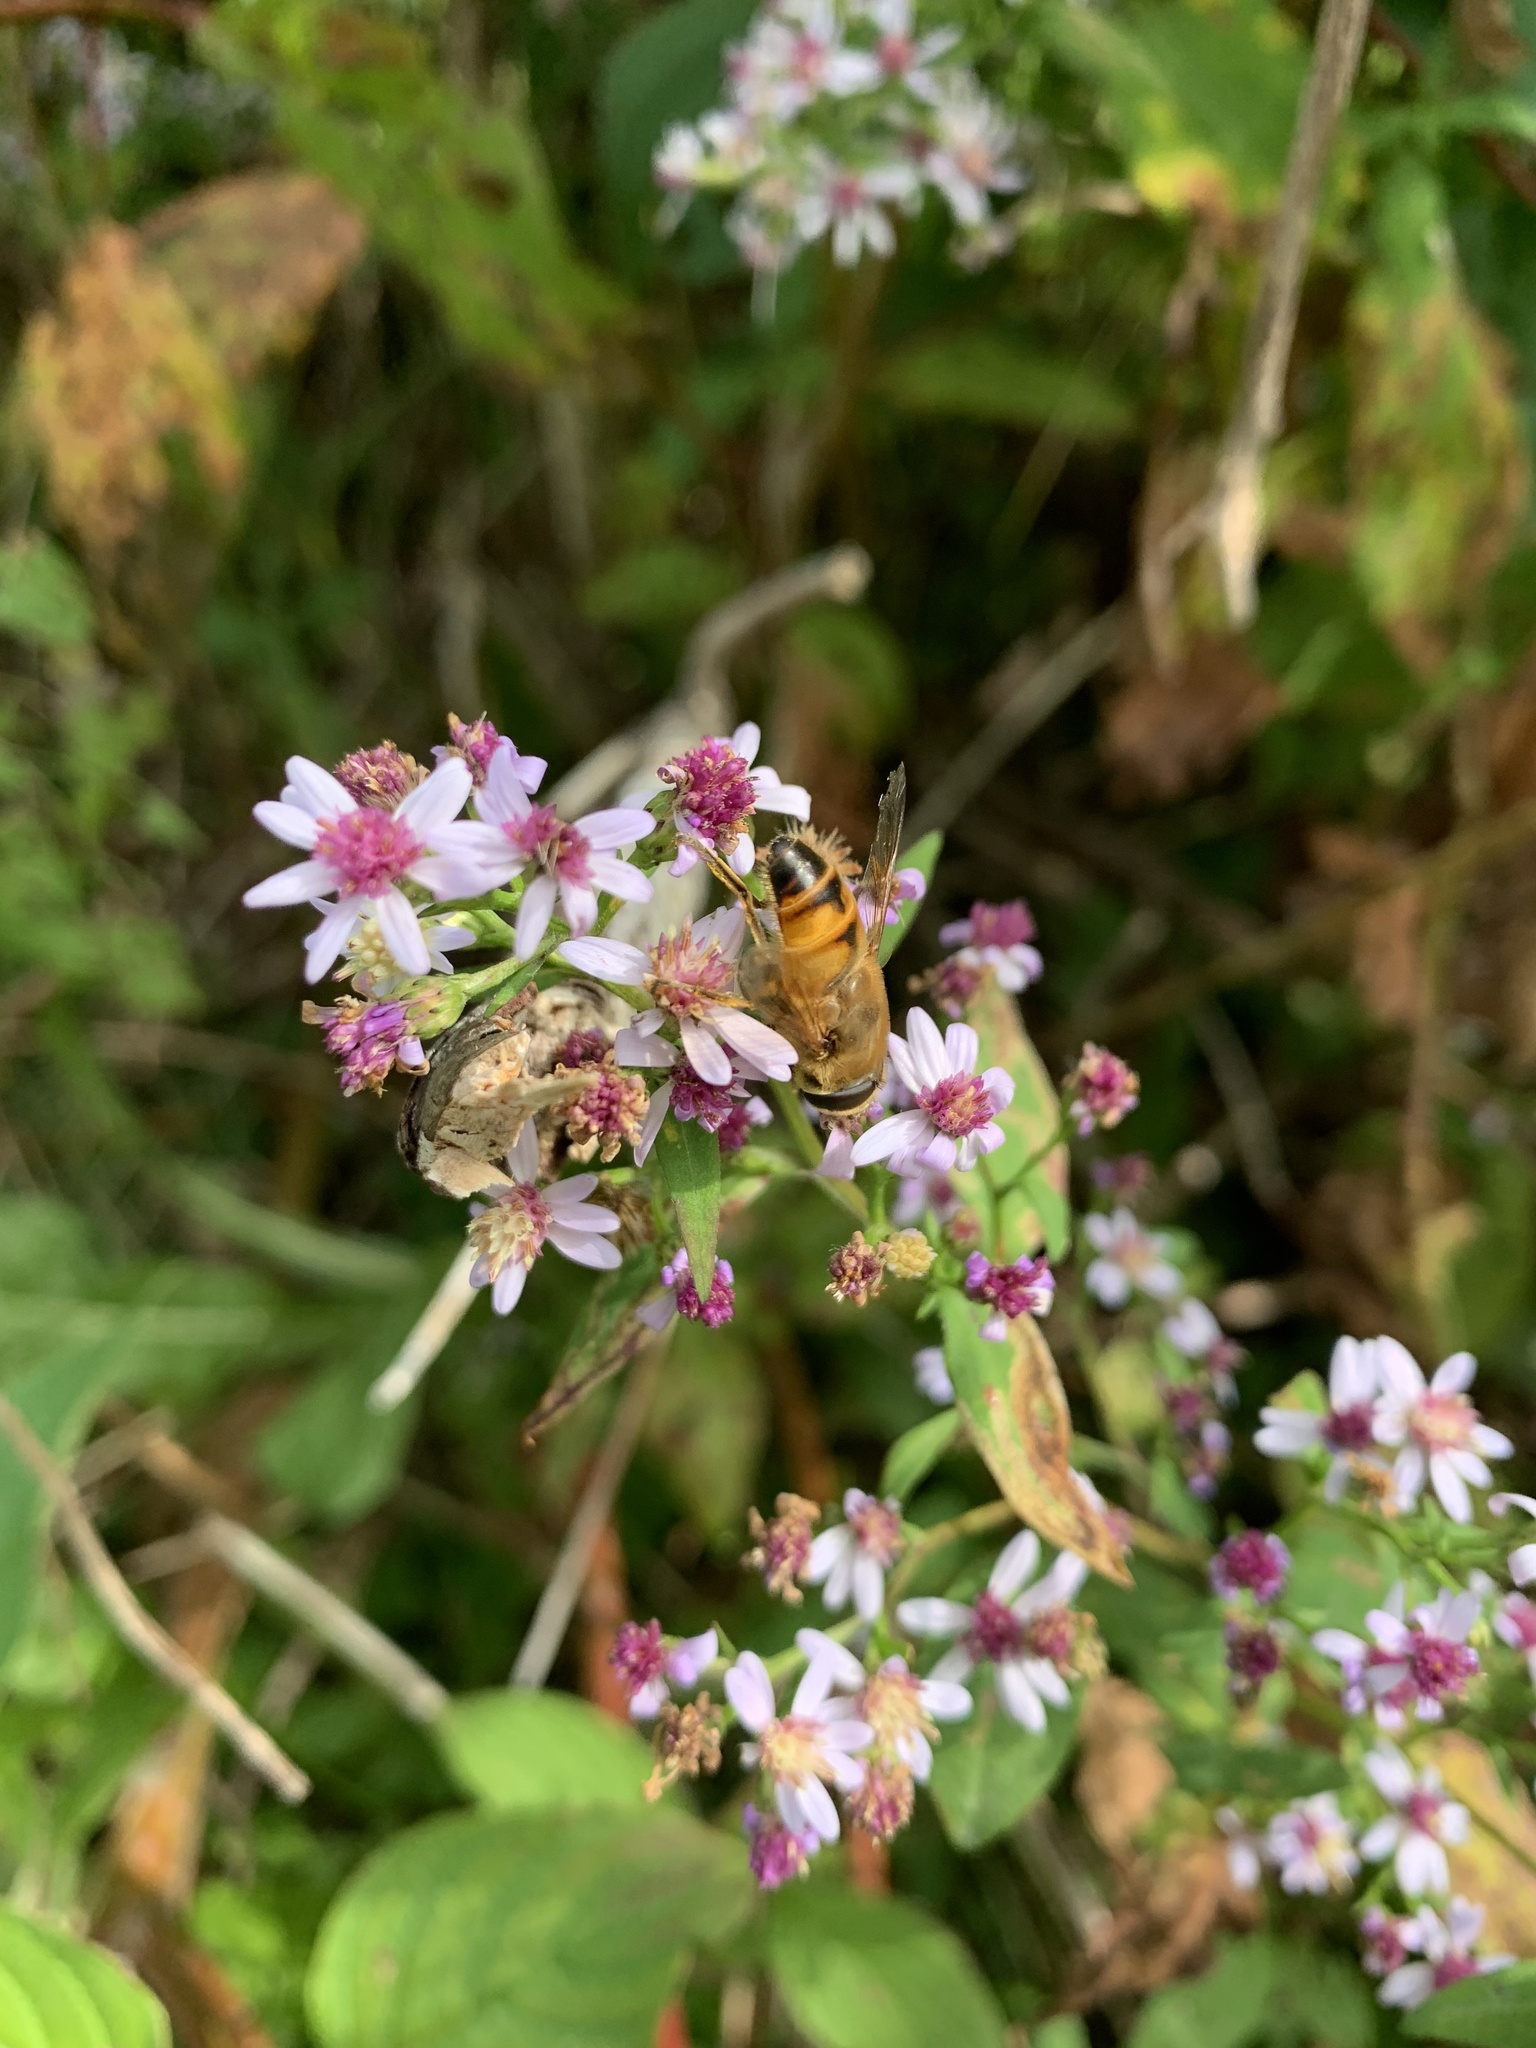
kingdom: Animalia
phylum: Arthropoda
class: Insecta
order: Diptera
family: Syrphidae
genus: Eristalis
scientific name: Eristalis tenax
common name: Drone fly
